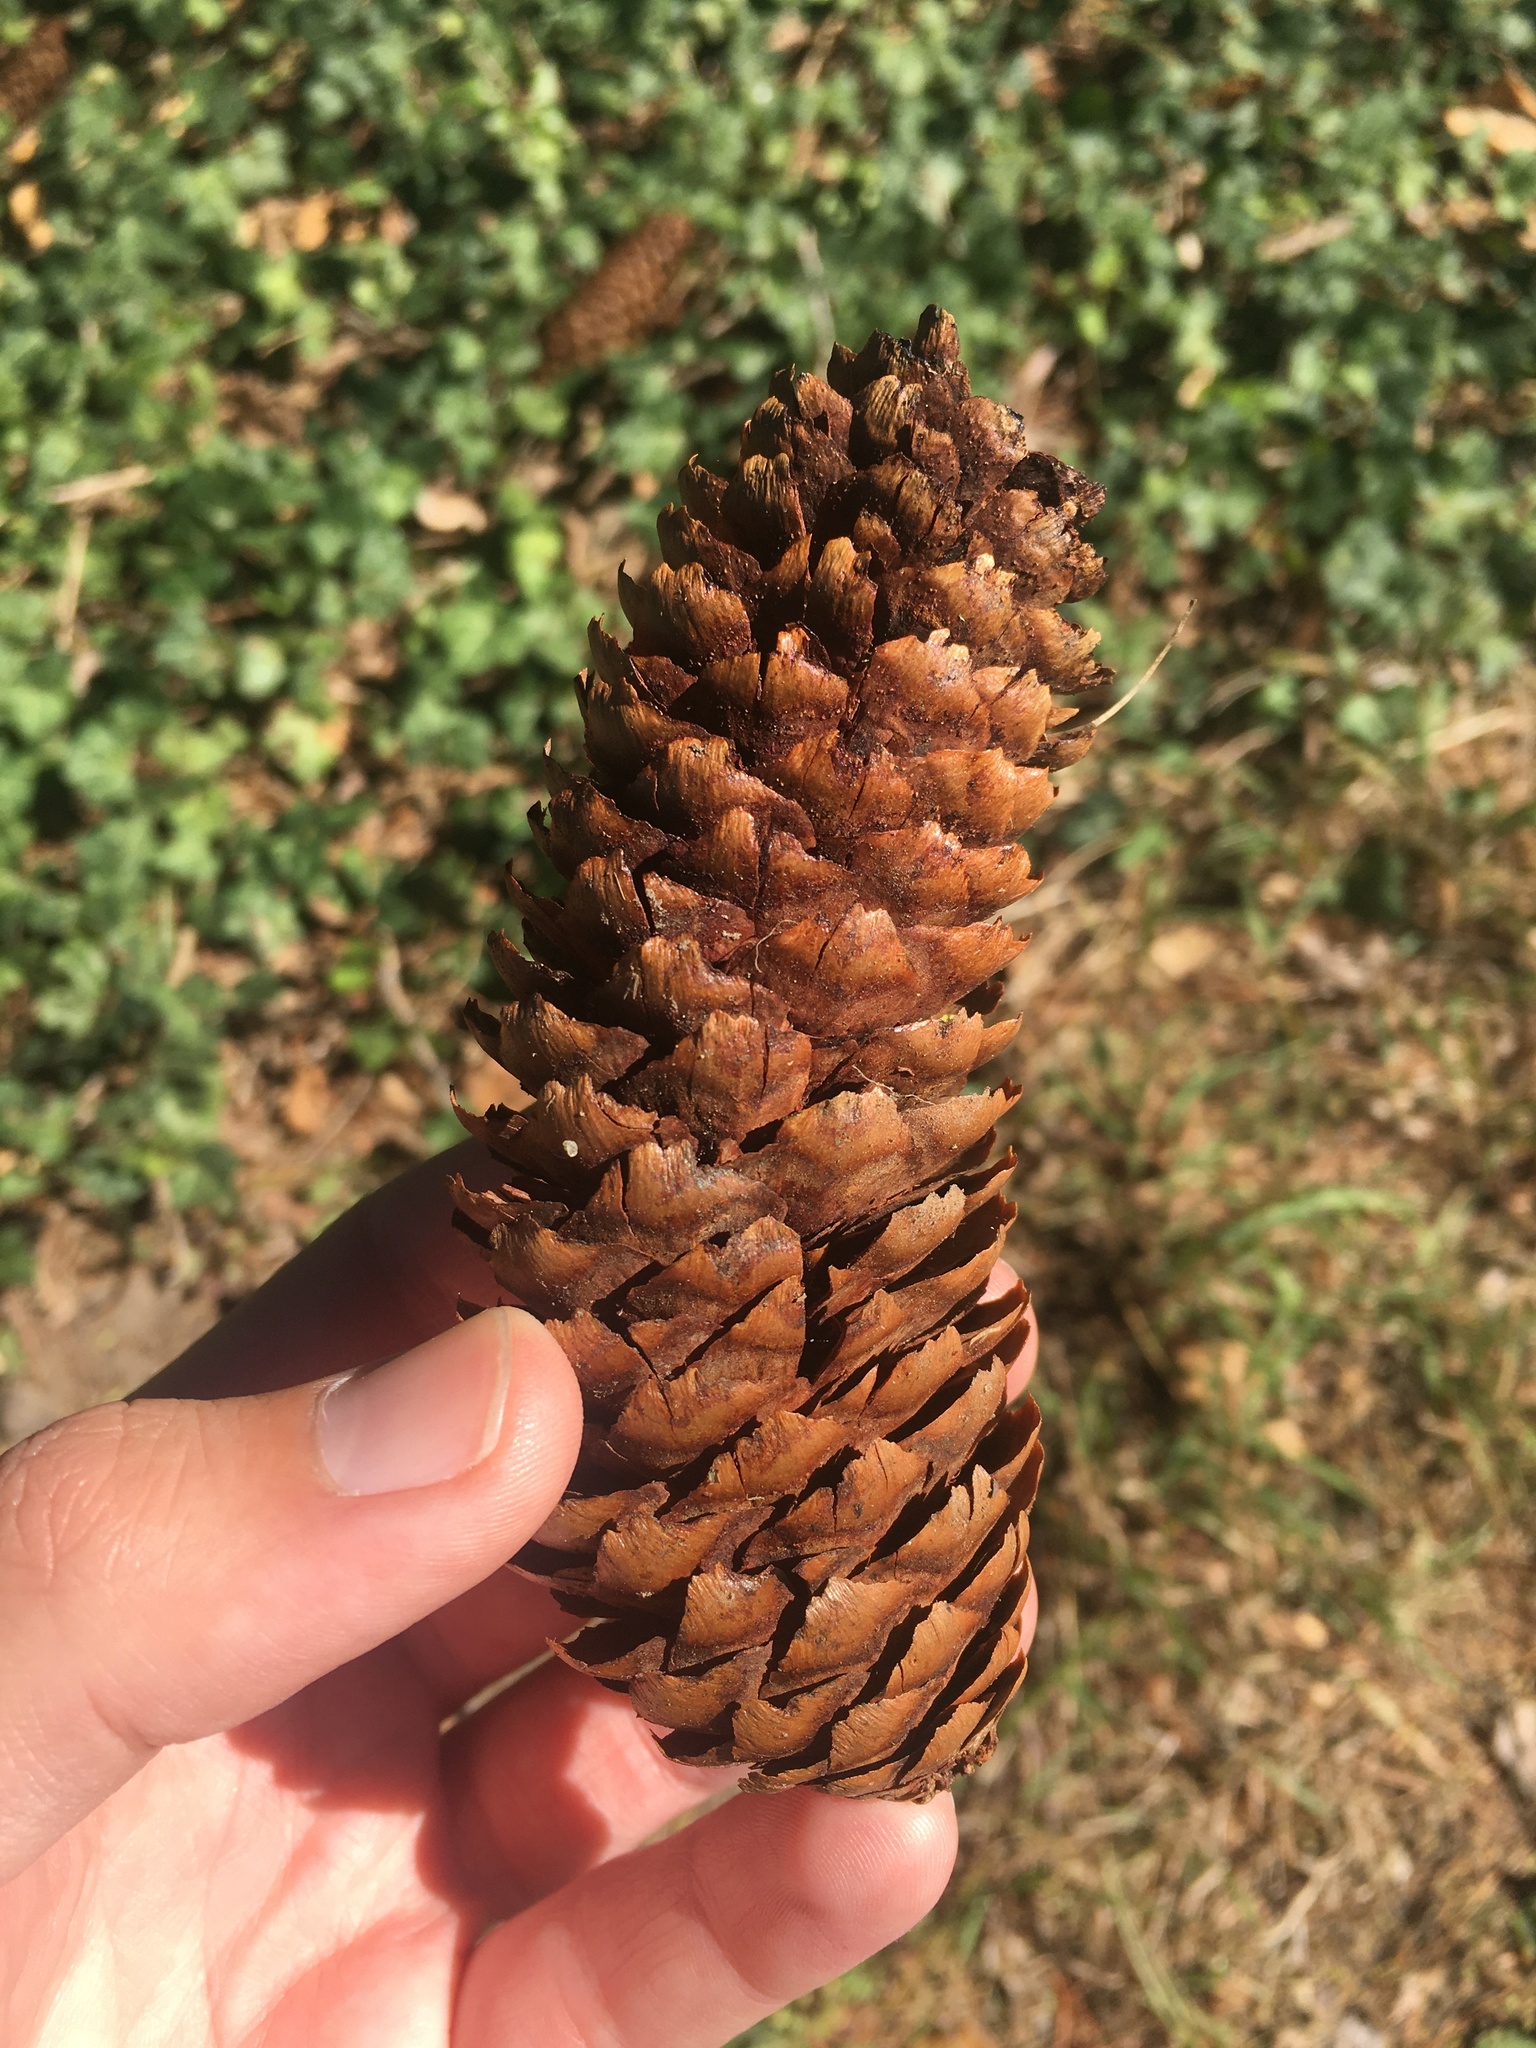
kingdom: Plantae
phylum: Tracheophyta
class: Pinopsida
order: Pinales
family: Pinaceae
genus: Picea
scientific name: Picea abies
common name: Norway spruce
